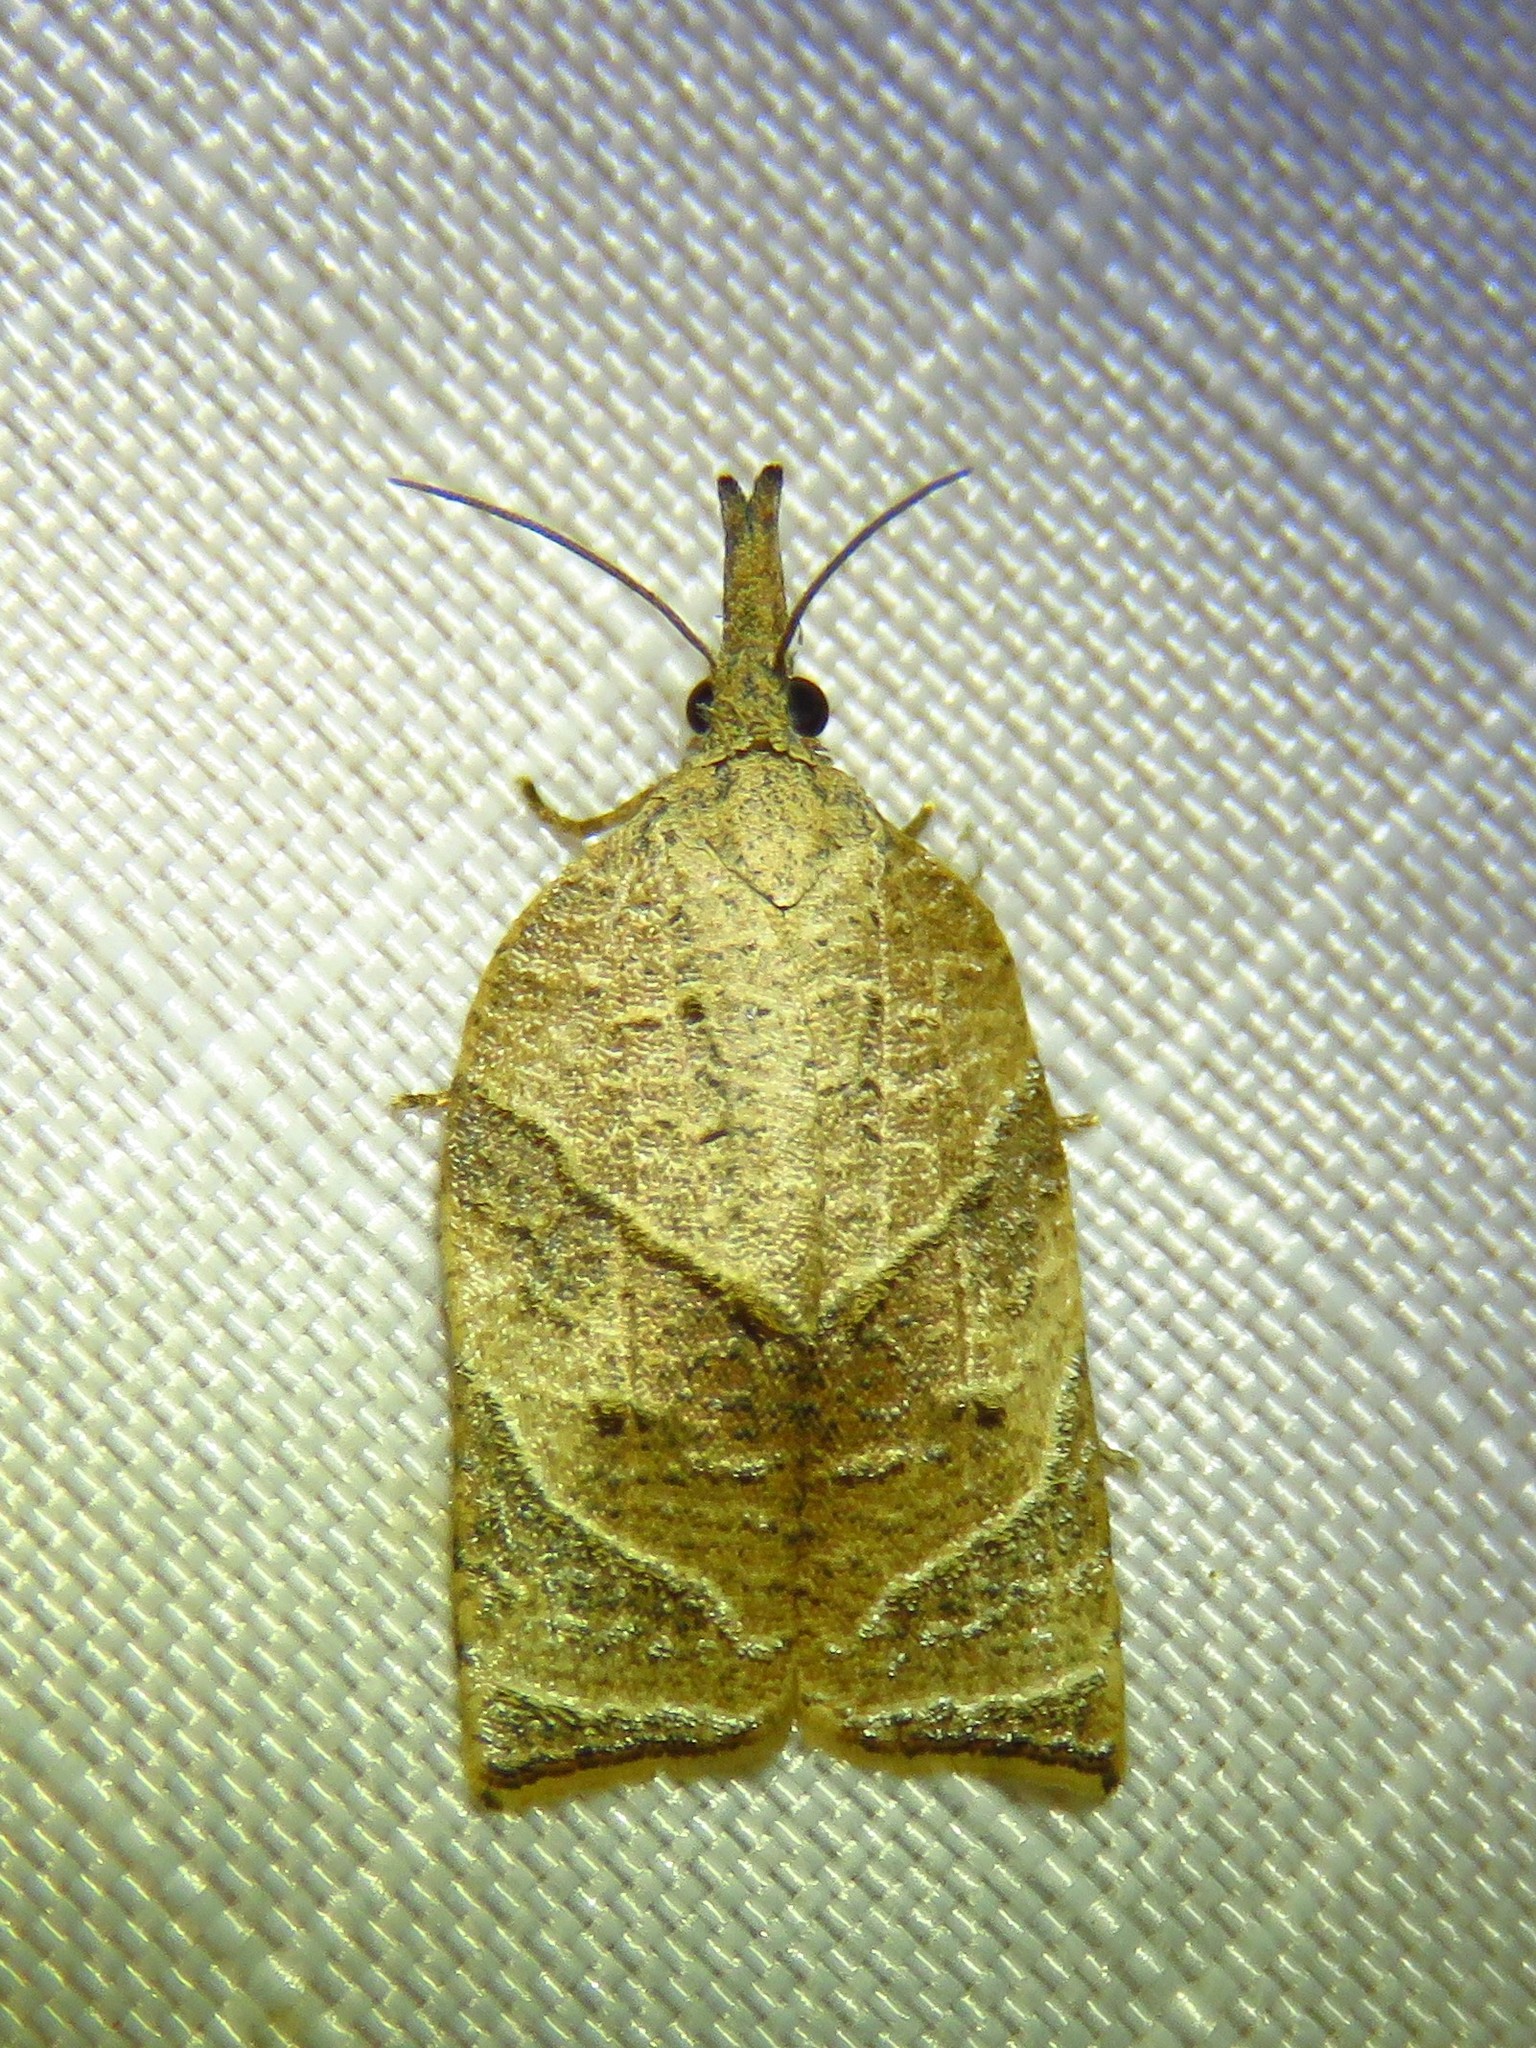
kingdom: Animalia
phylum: Arthropoda
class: Insecta
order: Lepidoptera
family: Tortricidae
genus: Platynota
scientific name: Platynota rostrana
